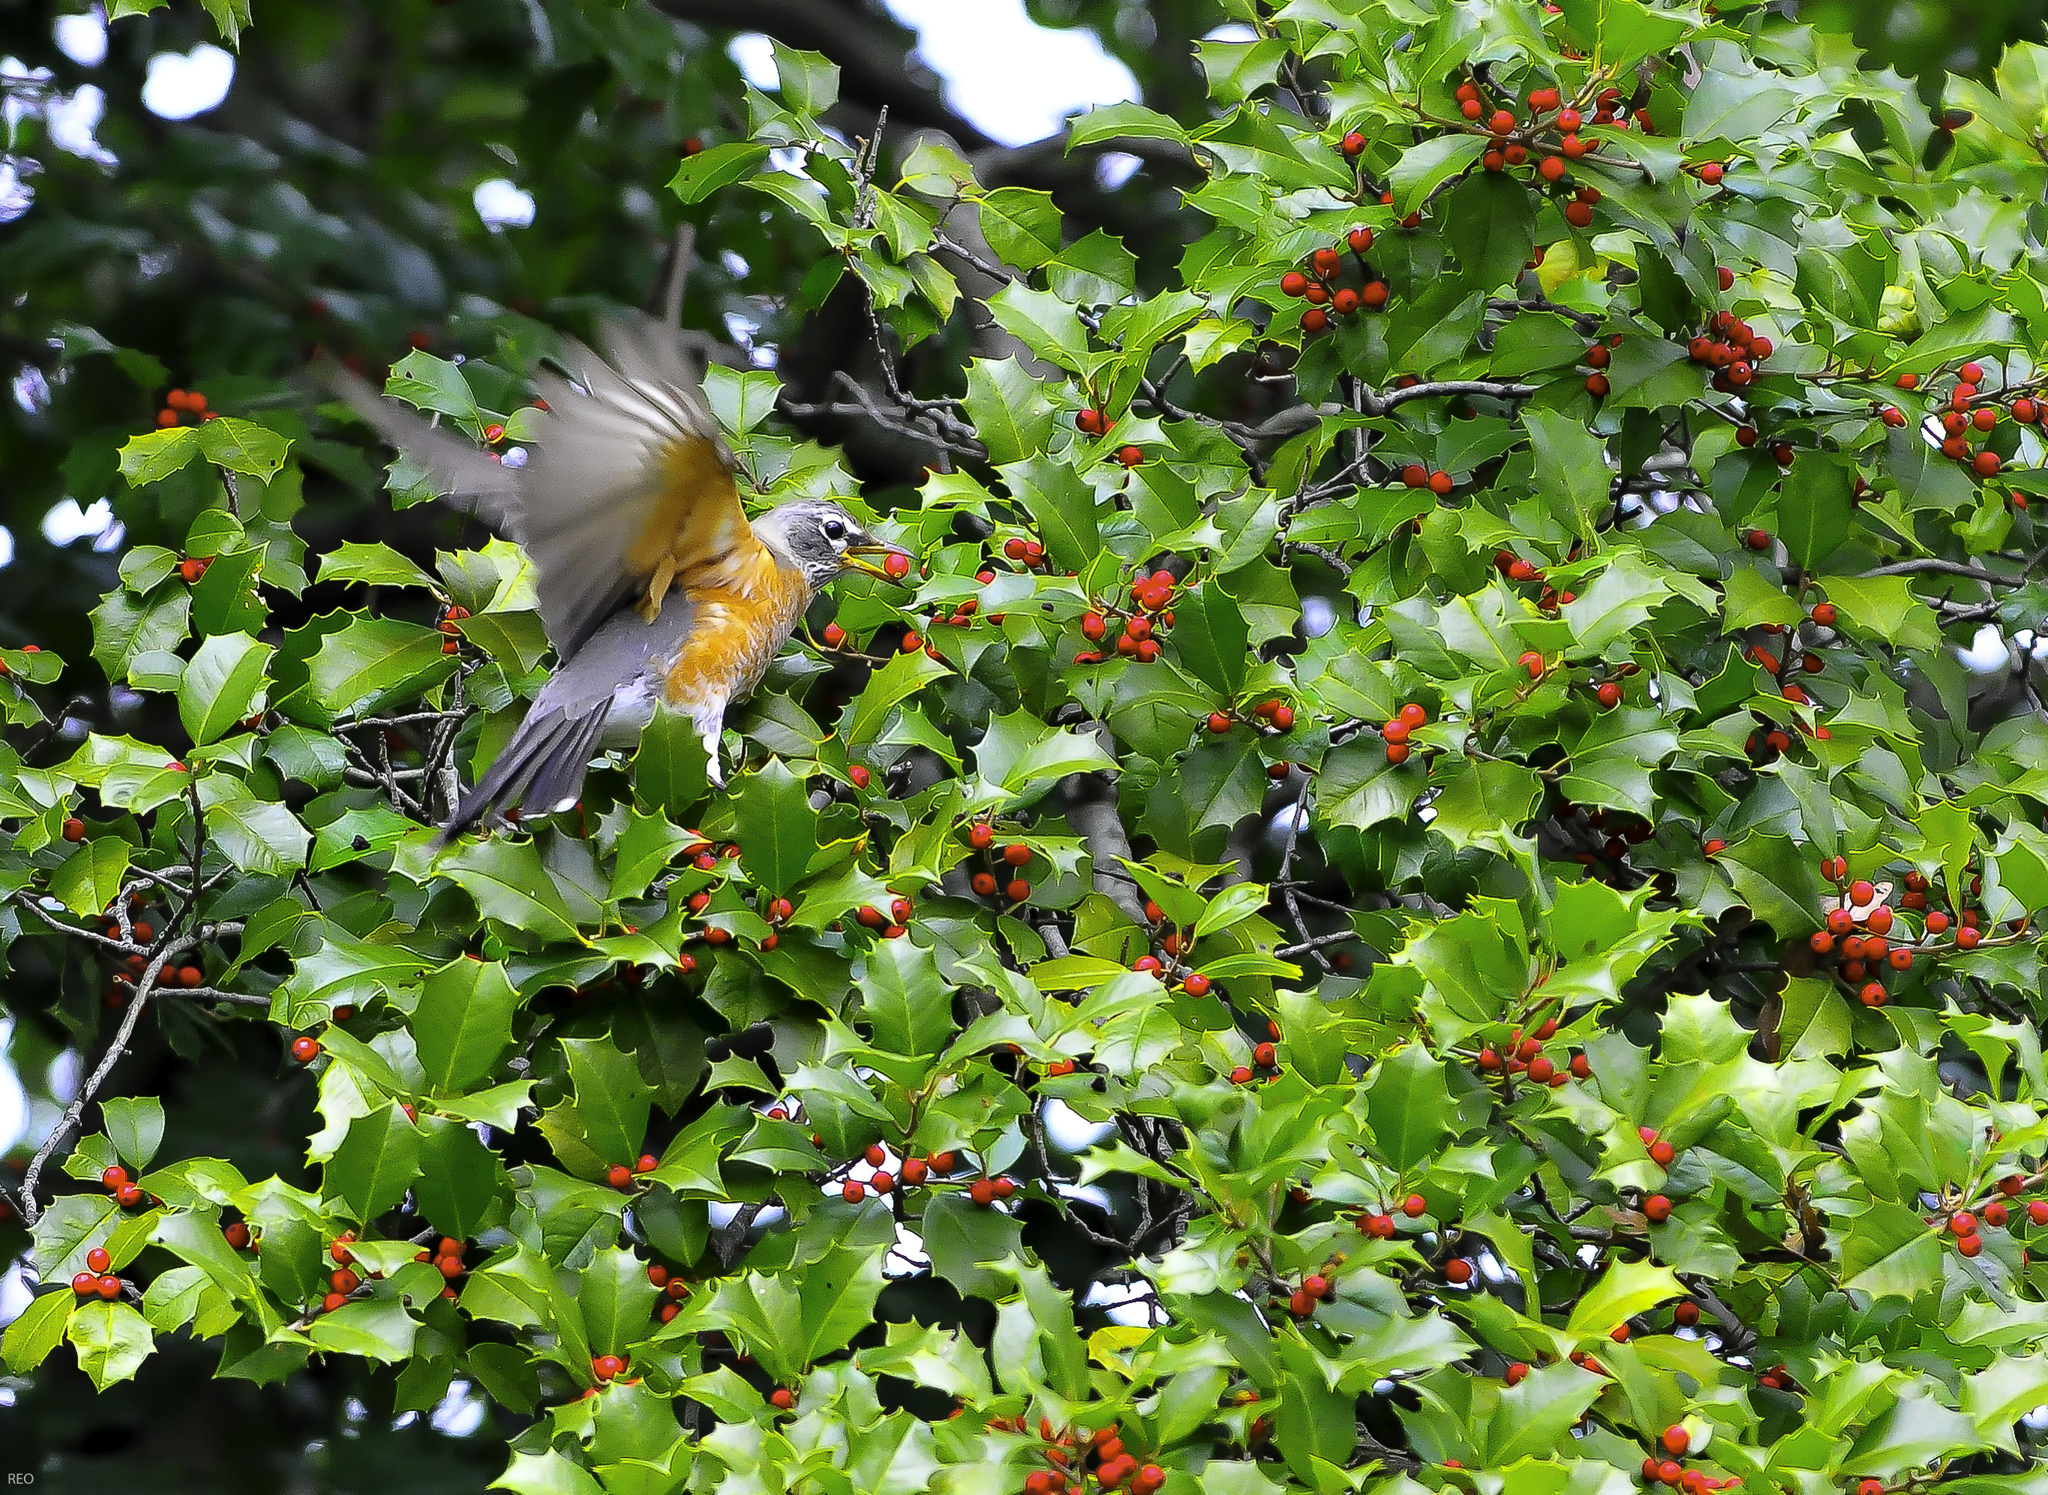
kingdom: Animalia
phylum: Chordata
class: Aves
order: Passeriformes
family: Turdidae
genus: Turdus
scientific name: Turdus migratorius
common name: American robin
